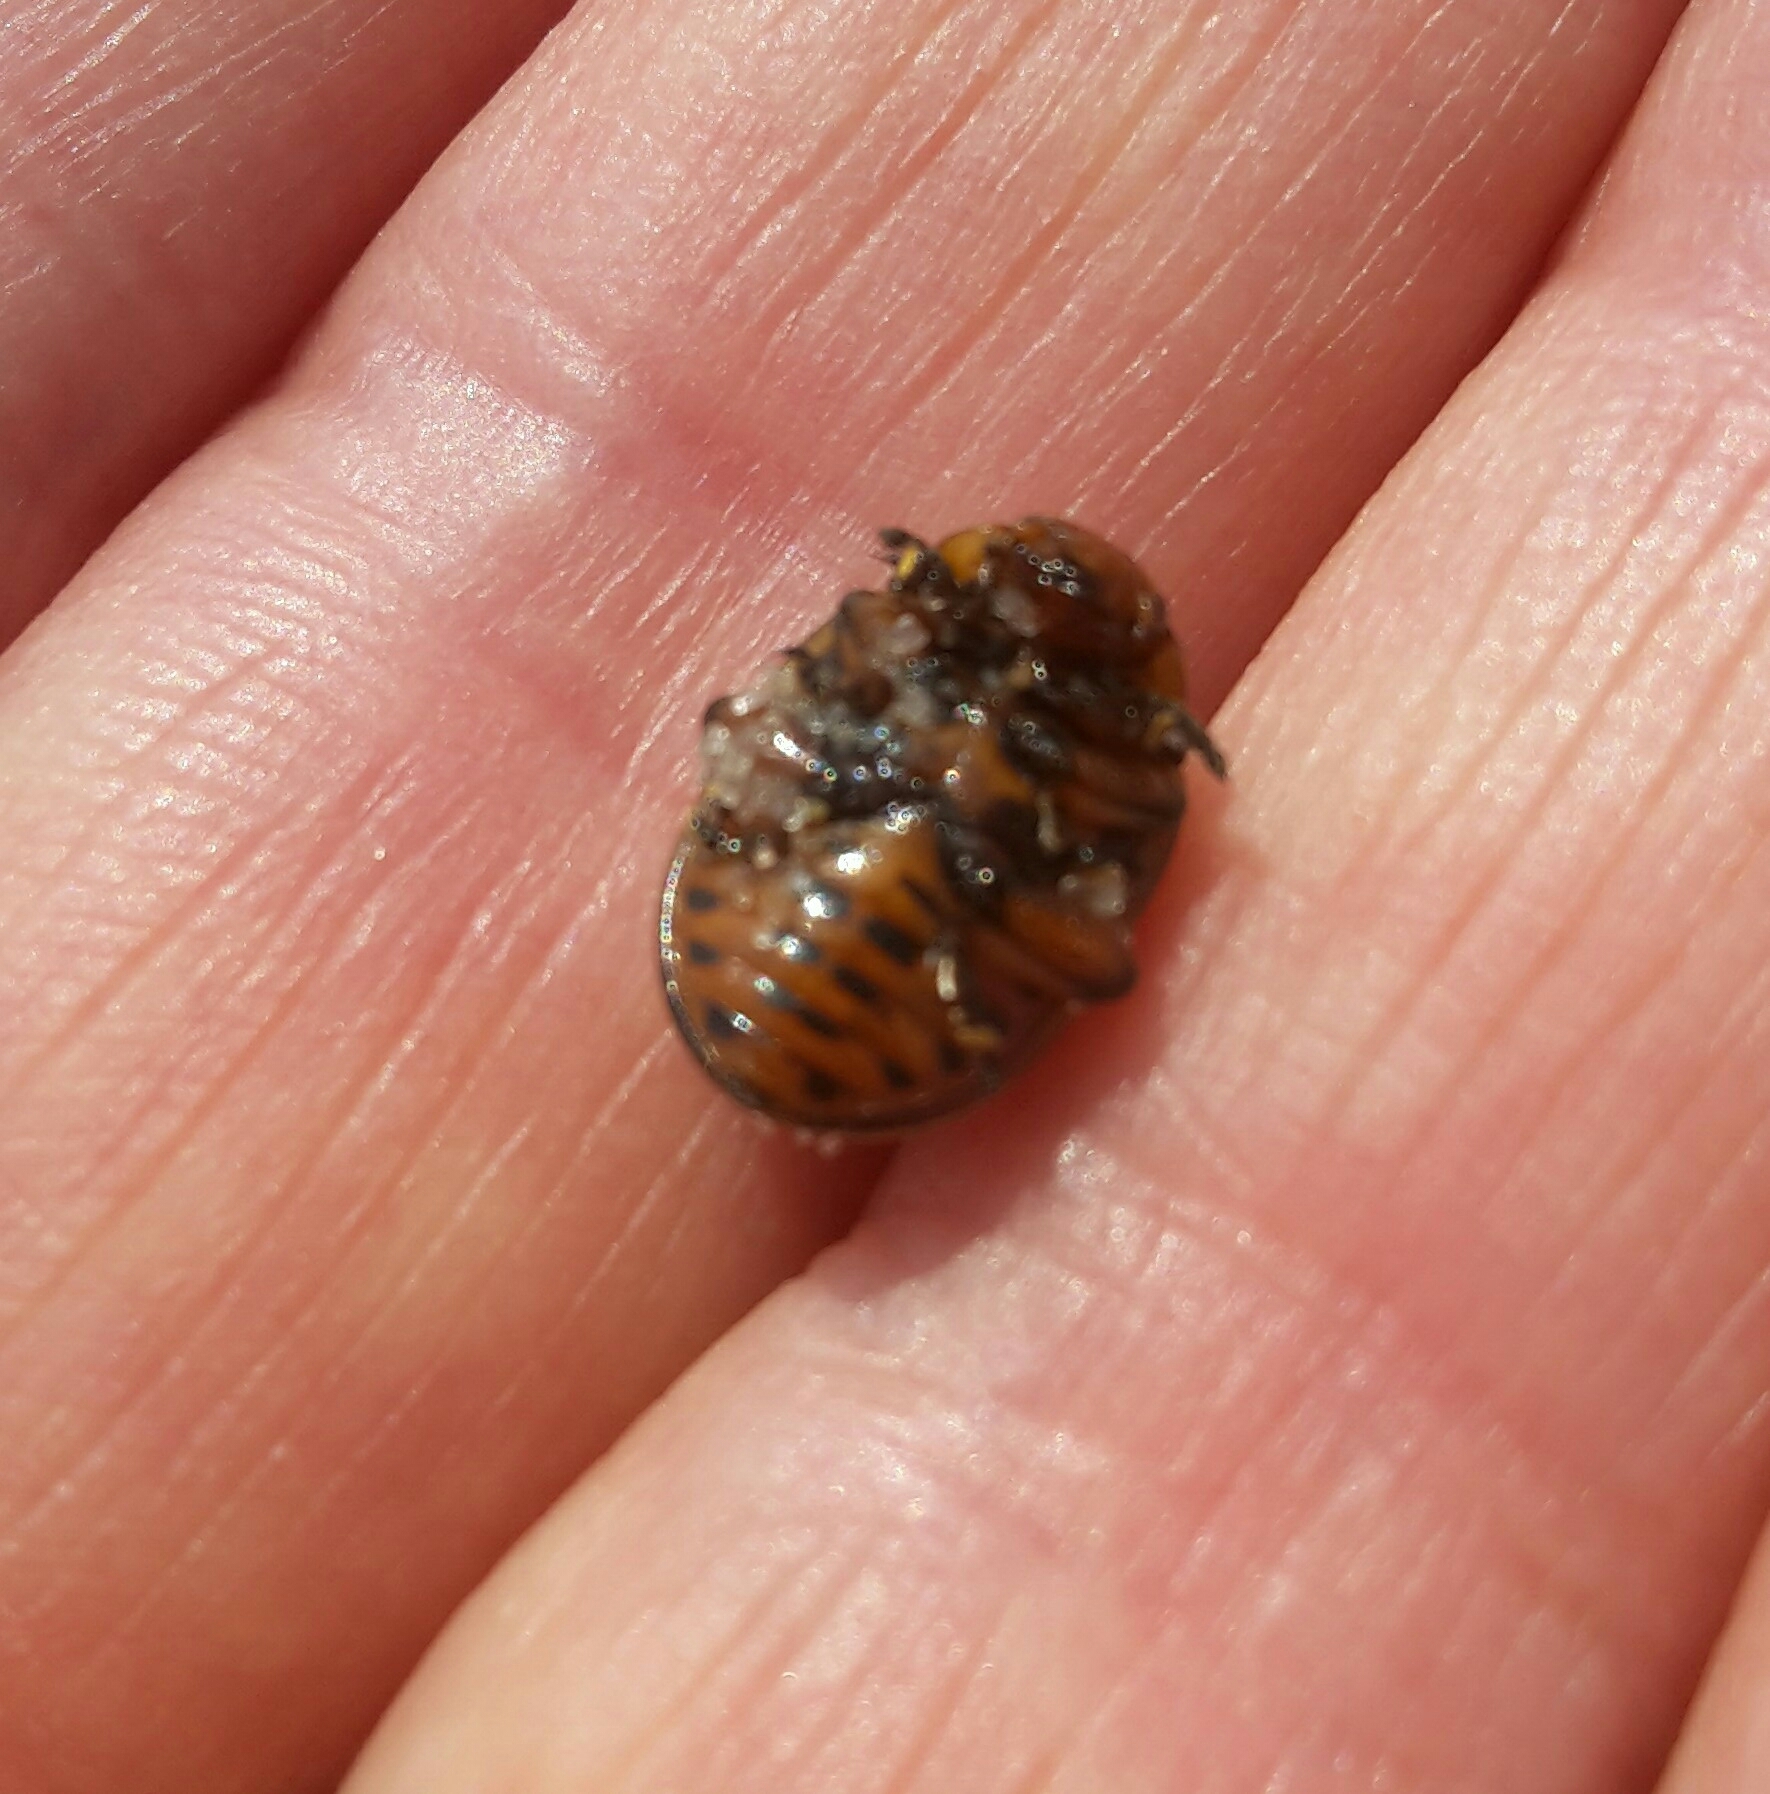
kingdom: Animalia
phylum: Arthropoda
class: Insecta
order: Coleoptera
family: Chrysomelidae
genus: Leptinotarsa
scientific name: Leptinotarsa decemlineata
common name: Colorado potato beetle
